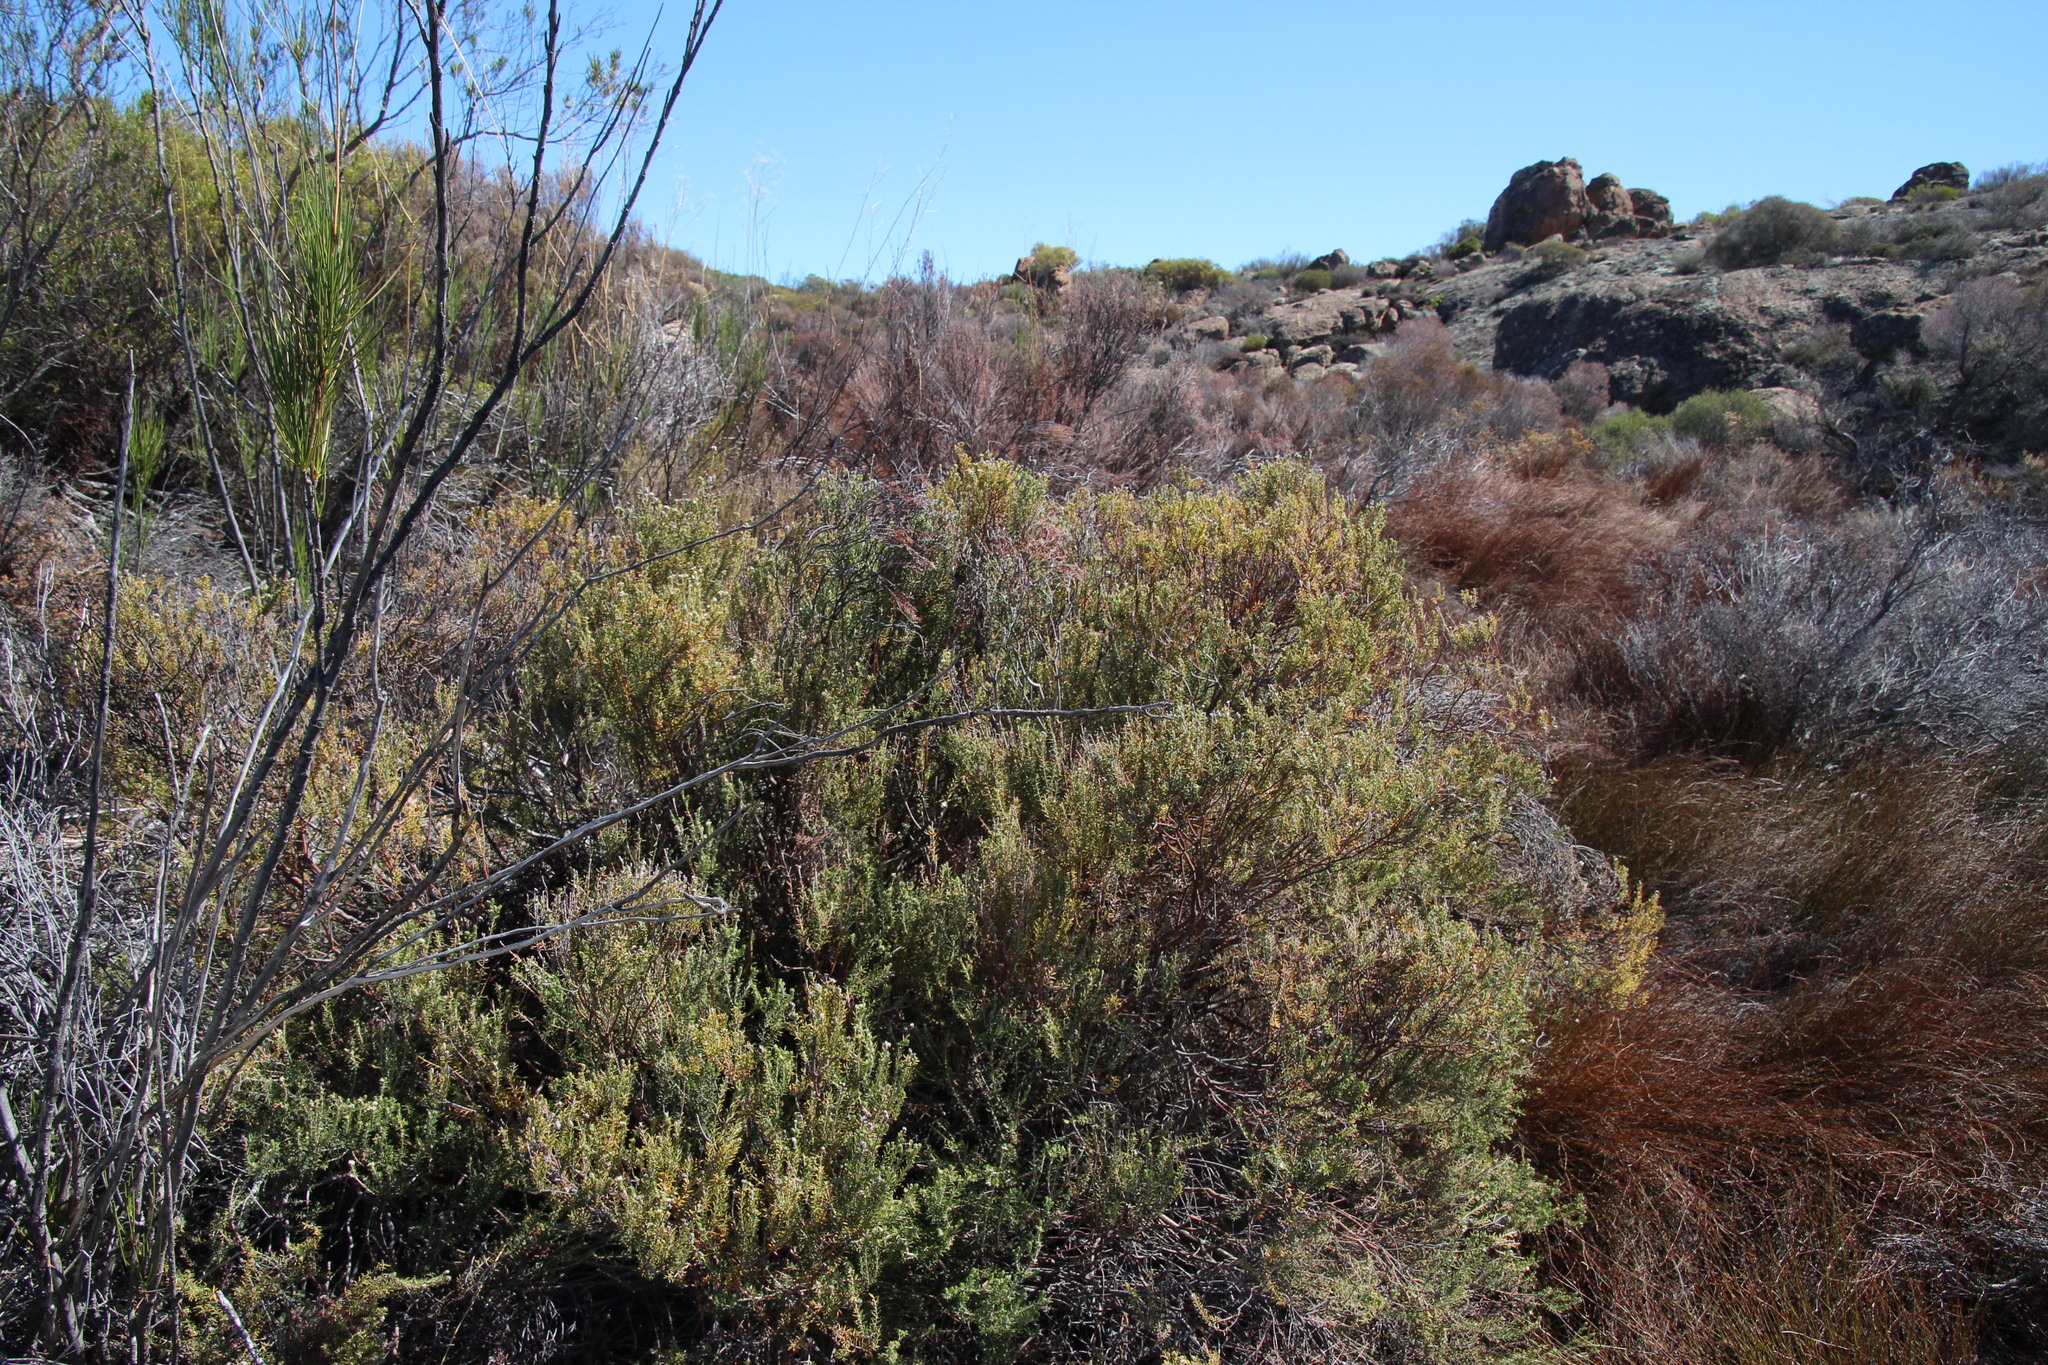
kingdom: Plantae
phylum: Tracheophyta
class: Magnoliopsida
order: Rosales
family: Rhamnaceae
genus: Phylica
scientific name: Phylica montana
